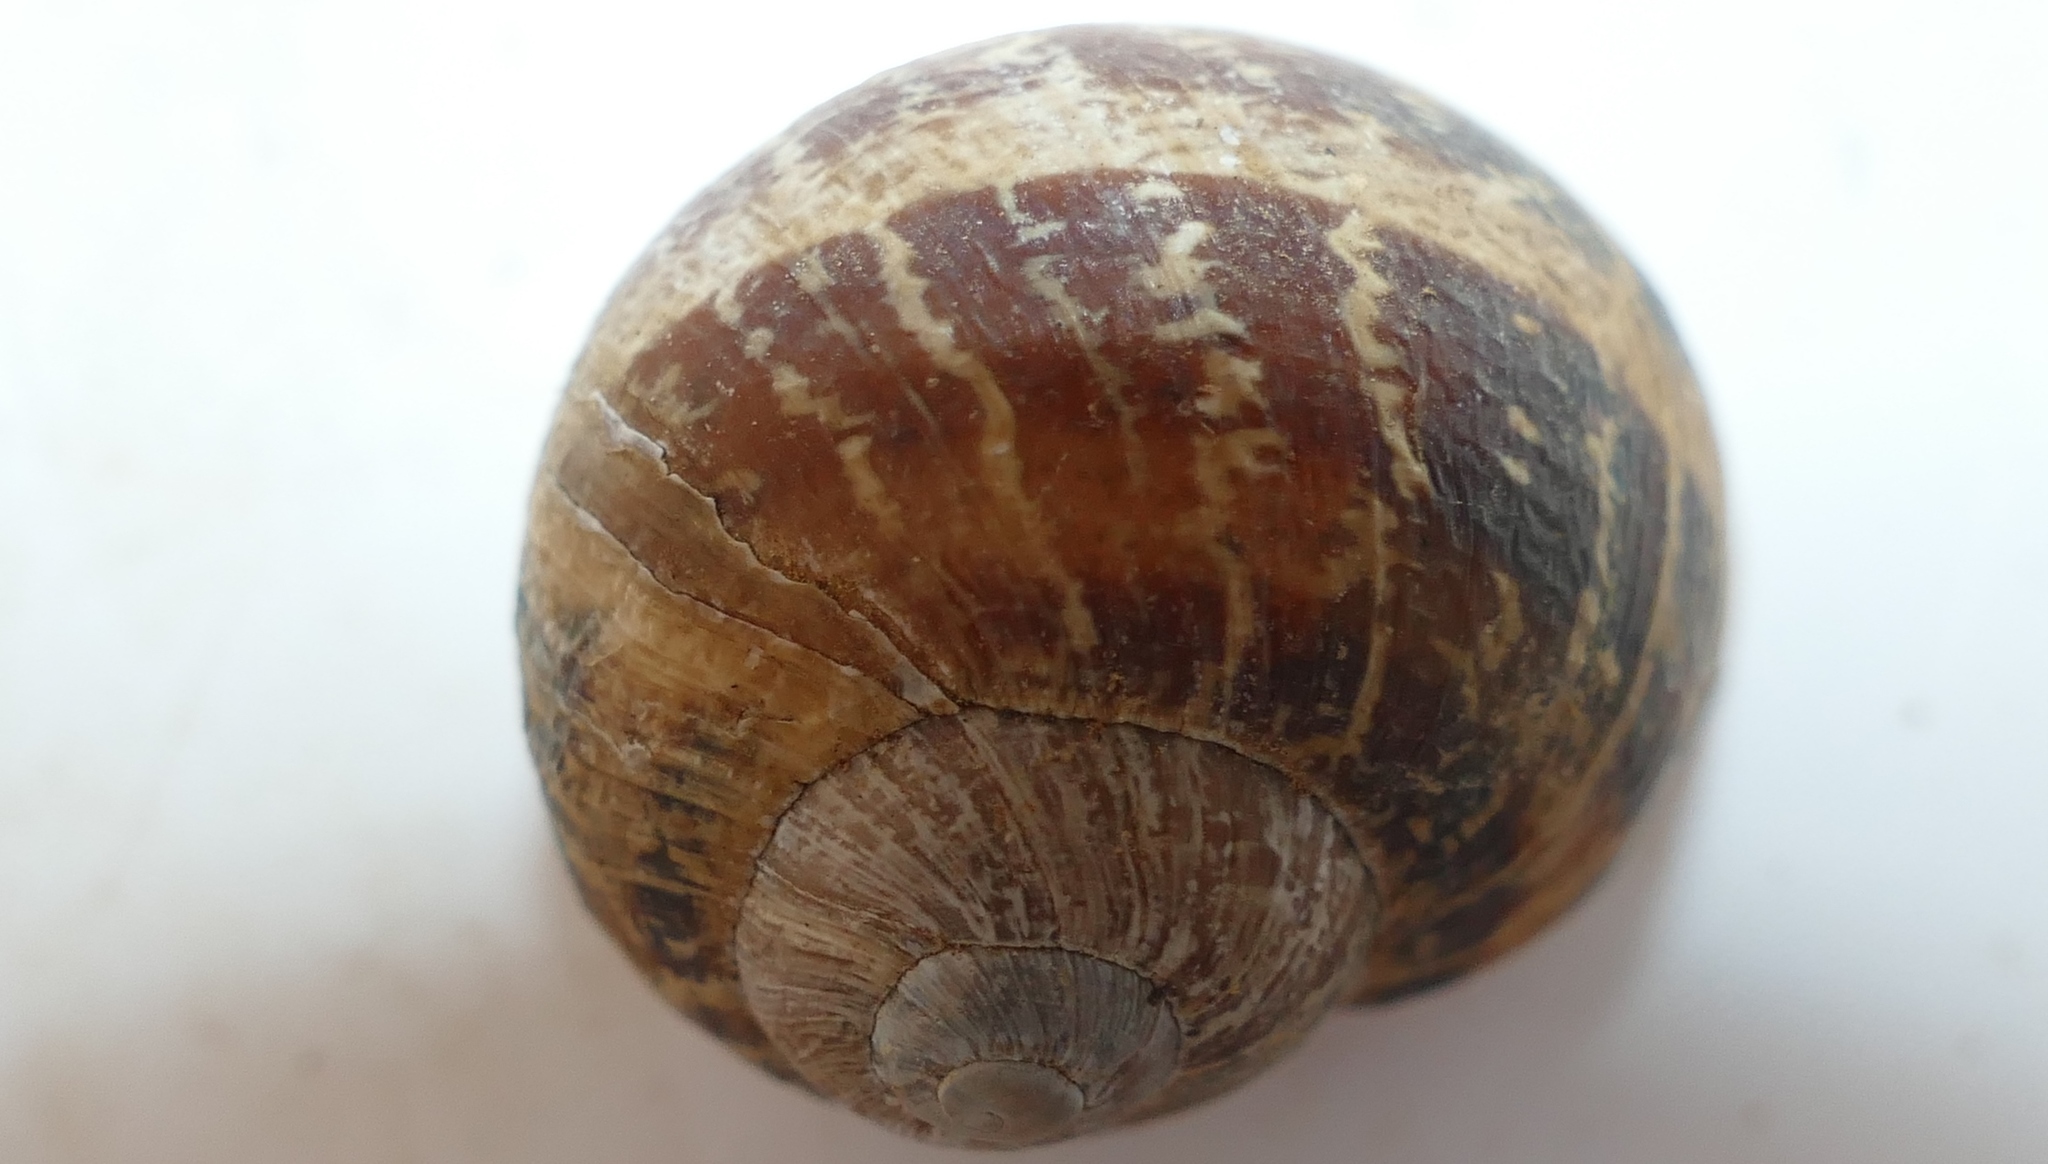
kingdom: Animalia
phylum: Mollusca
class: Gastropoda
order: Stylommatophora
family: Helicidae
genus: Cornu
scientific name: Cornu aspersum
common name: Brown garden snail
